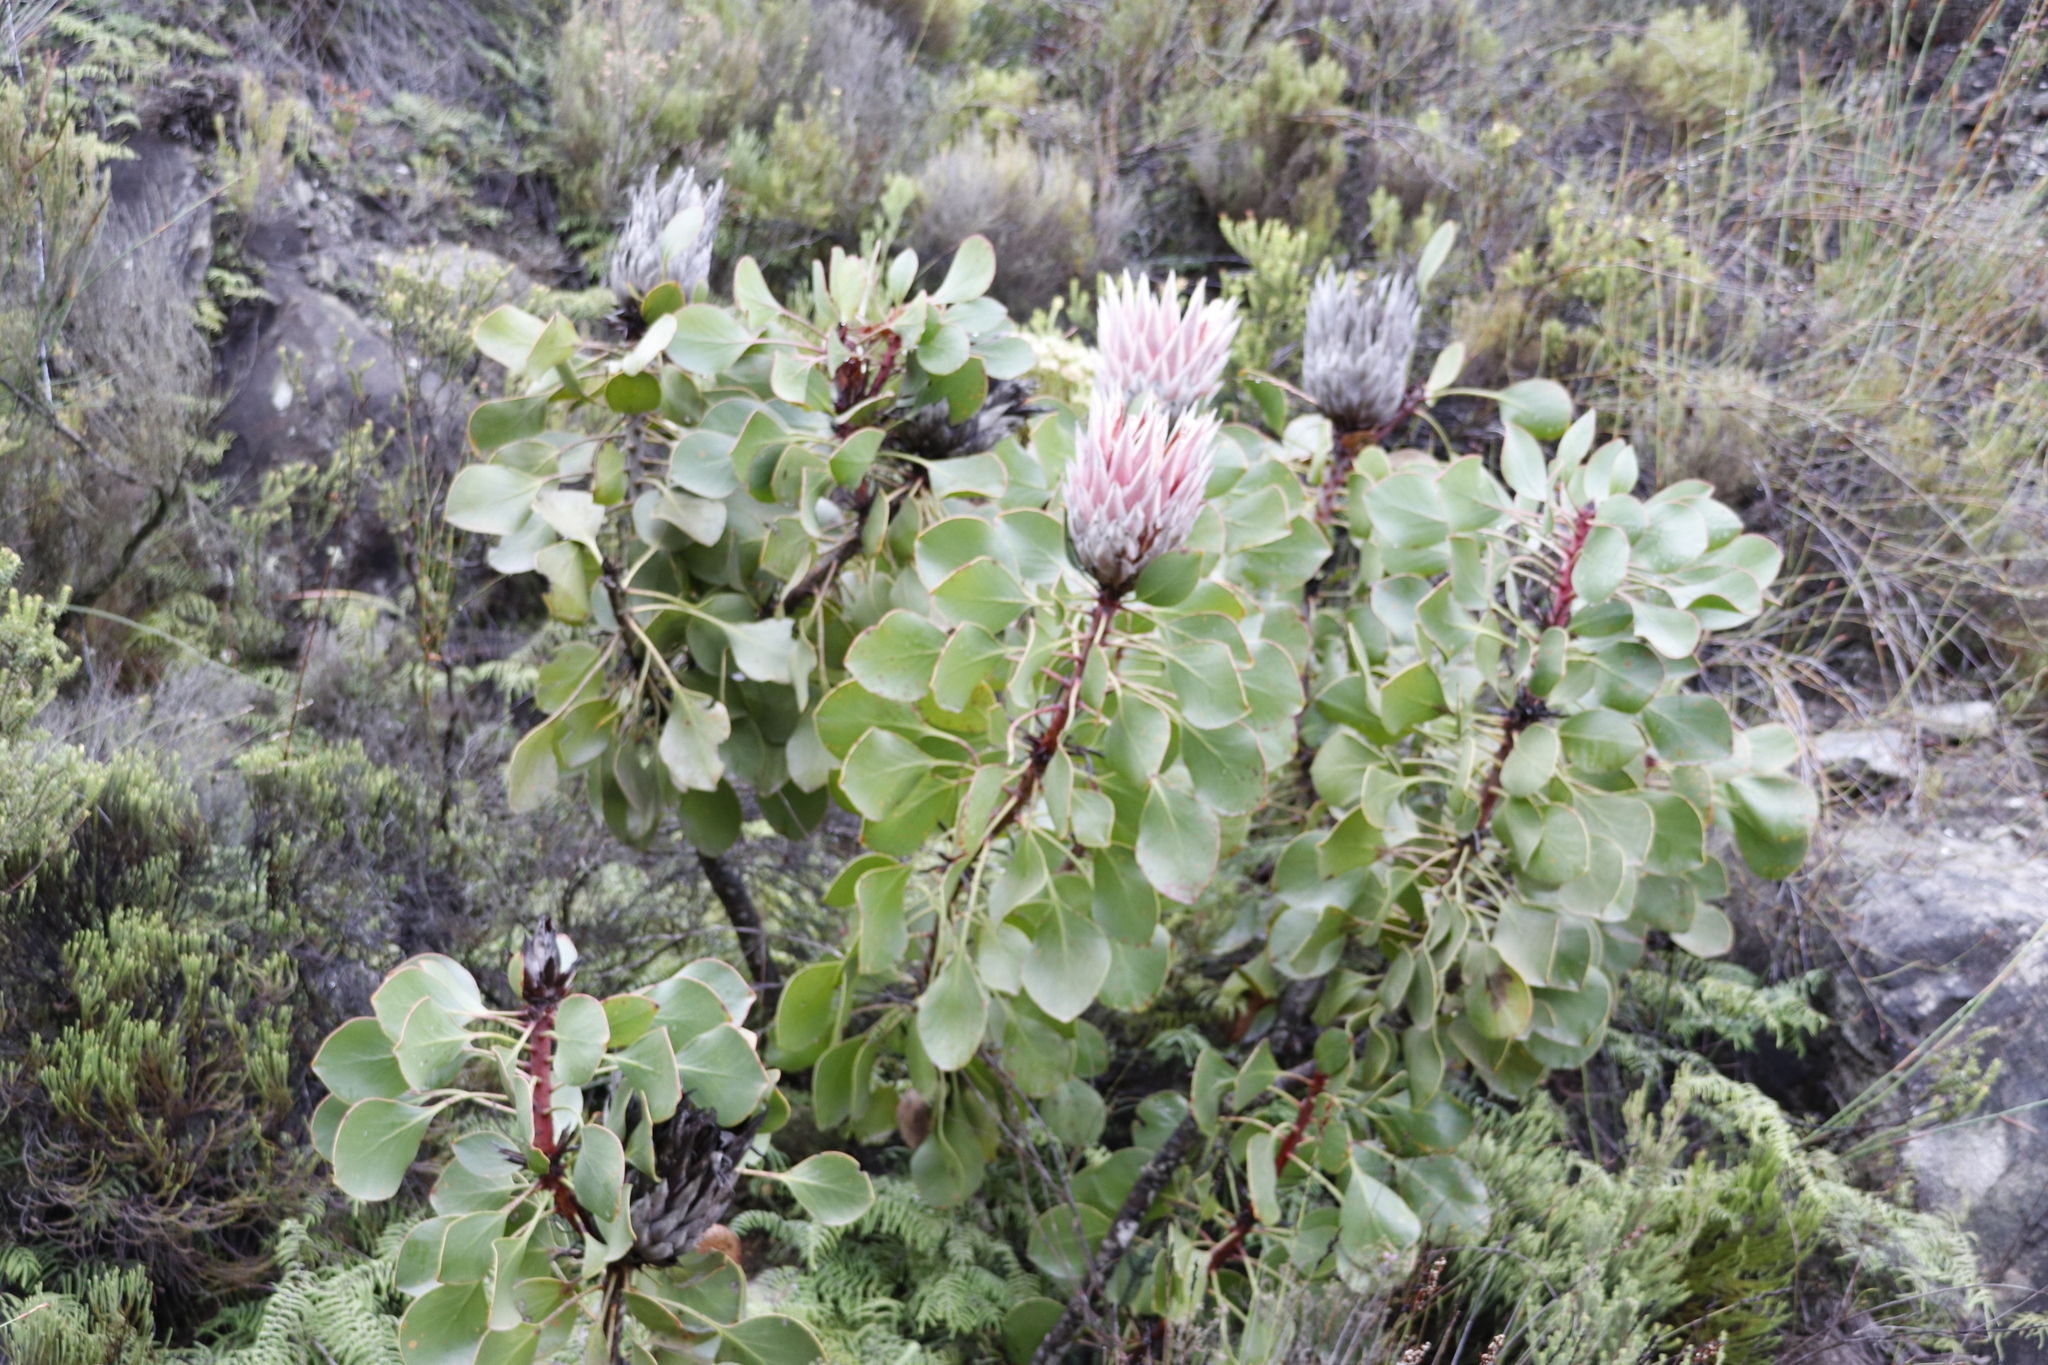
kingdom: Plantae
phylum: Tracheophyta
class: Magnoliopsida
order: Proteales
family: Proteaceae
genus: Protea
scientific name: Protea cynaroides
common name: King protea
